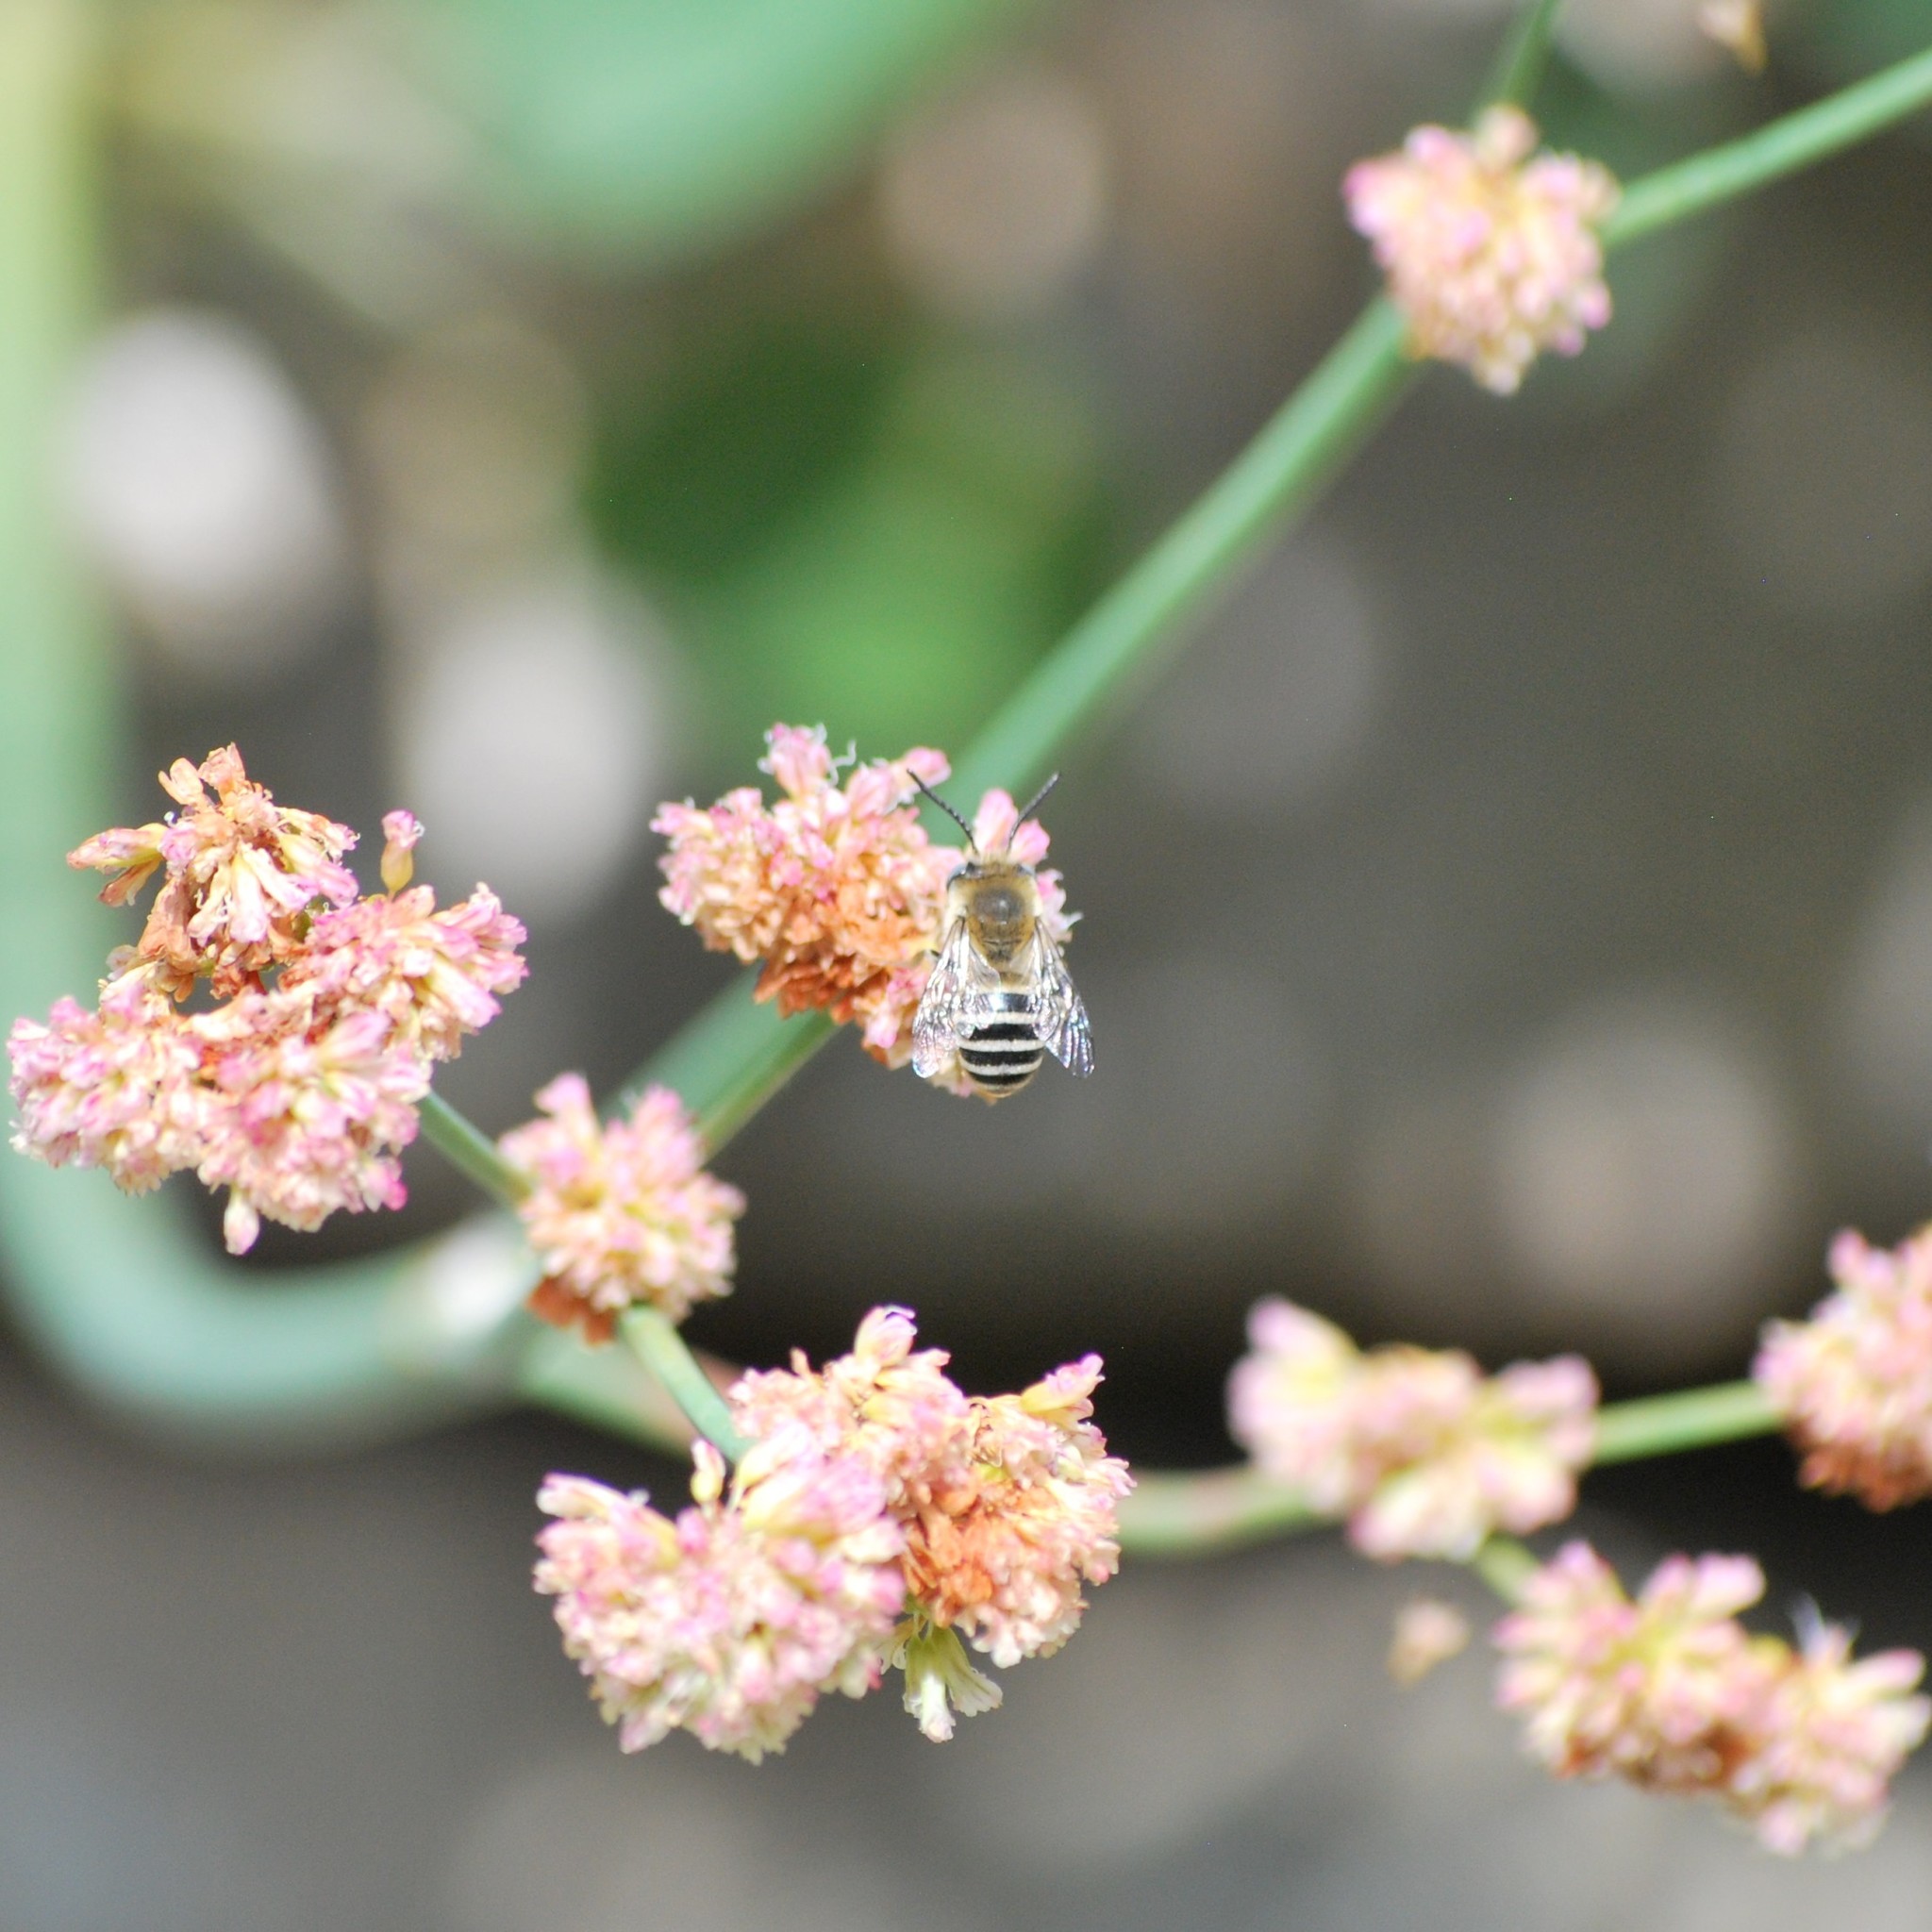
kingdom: Animalia
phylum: Arthropoda
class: Insecta
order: Hymenoptera
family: Apidae
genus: Anthophora
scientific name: Anthophora urbana
